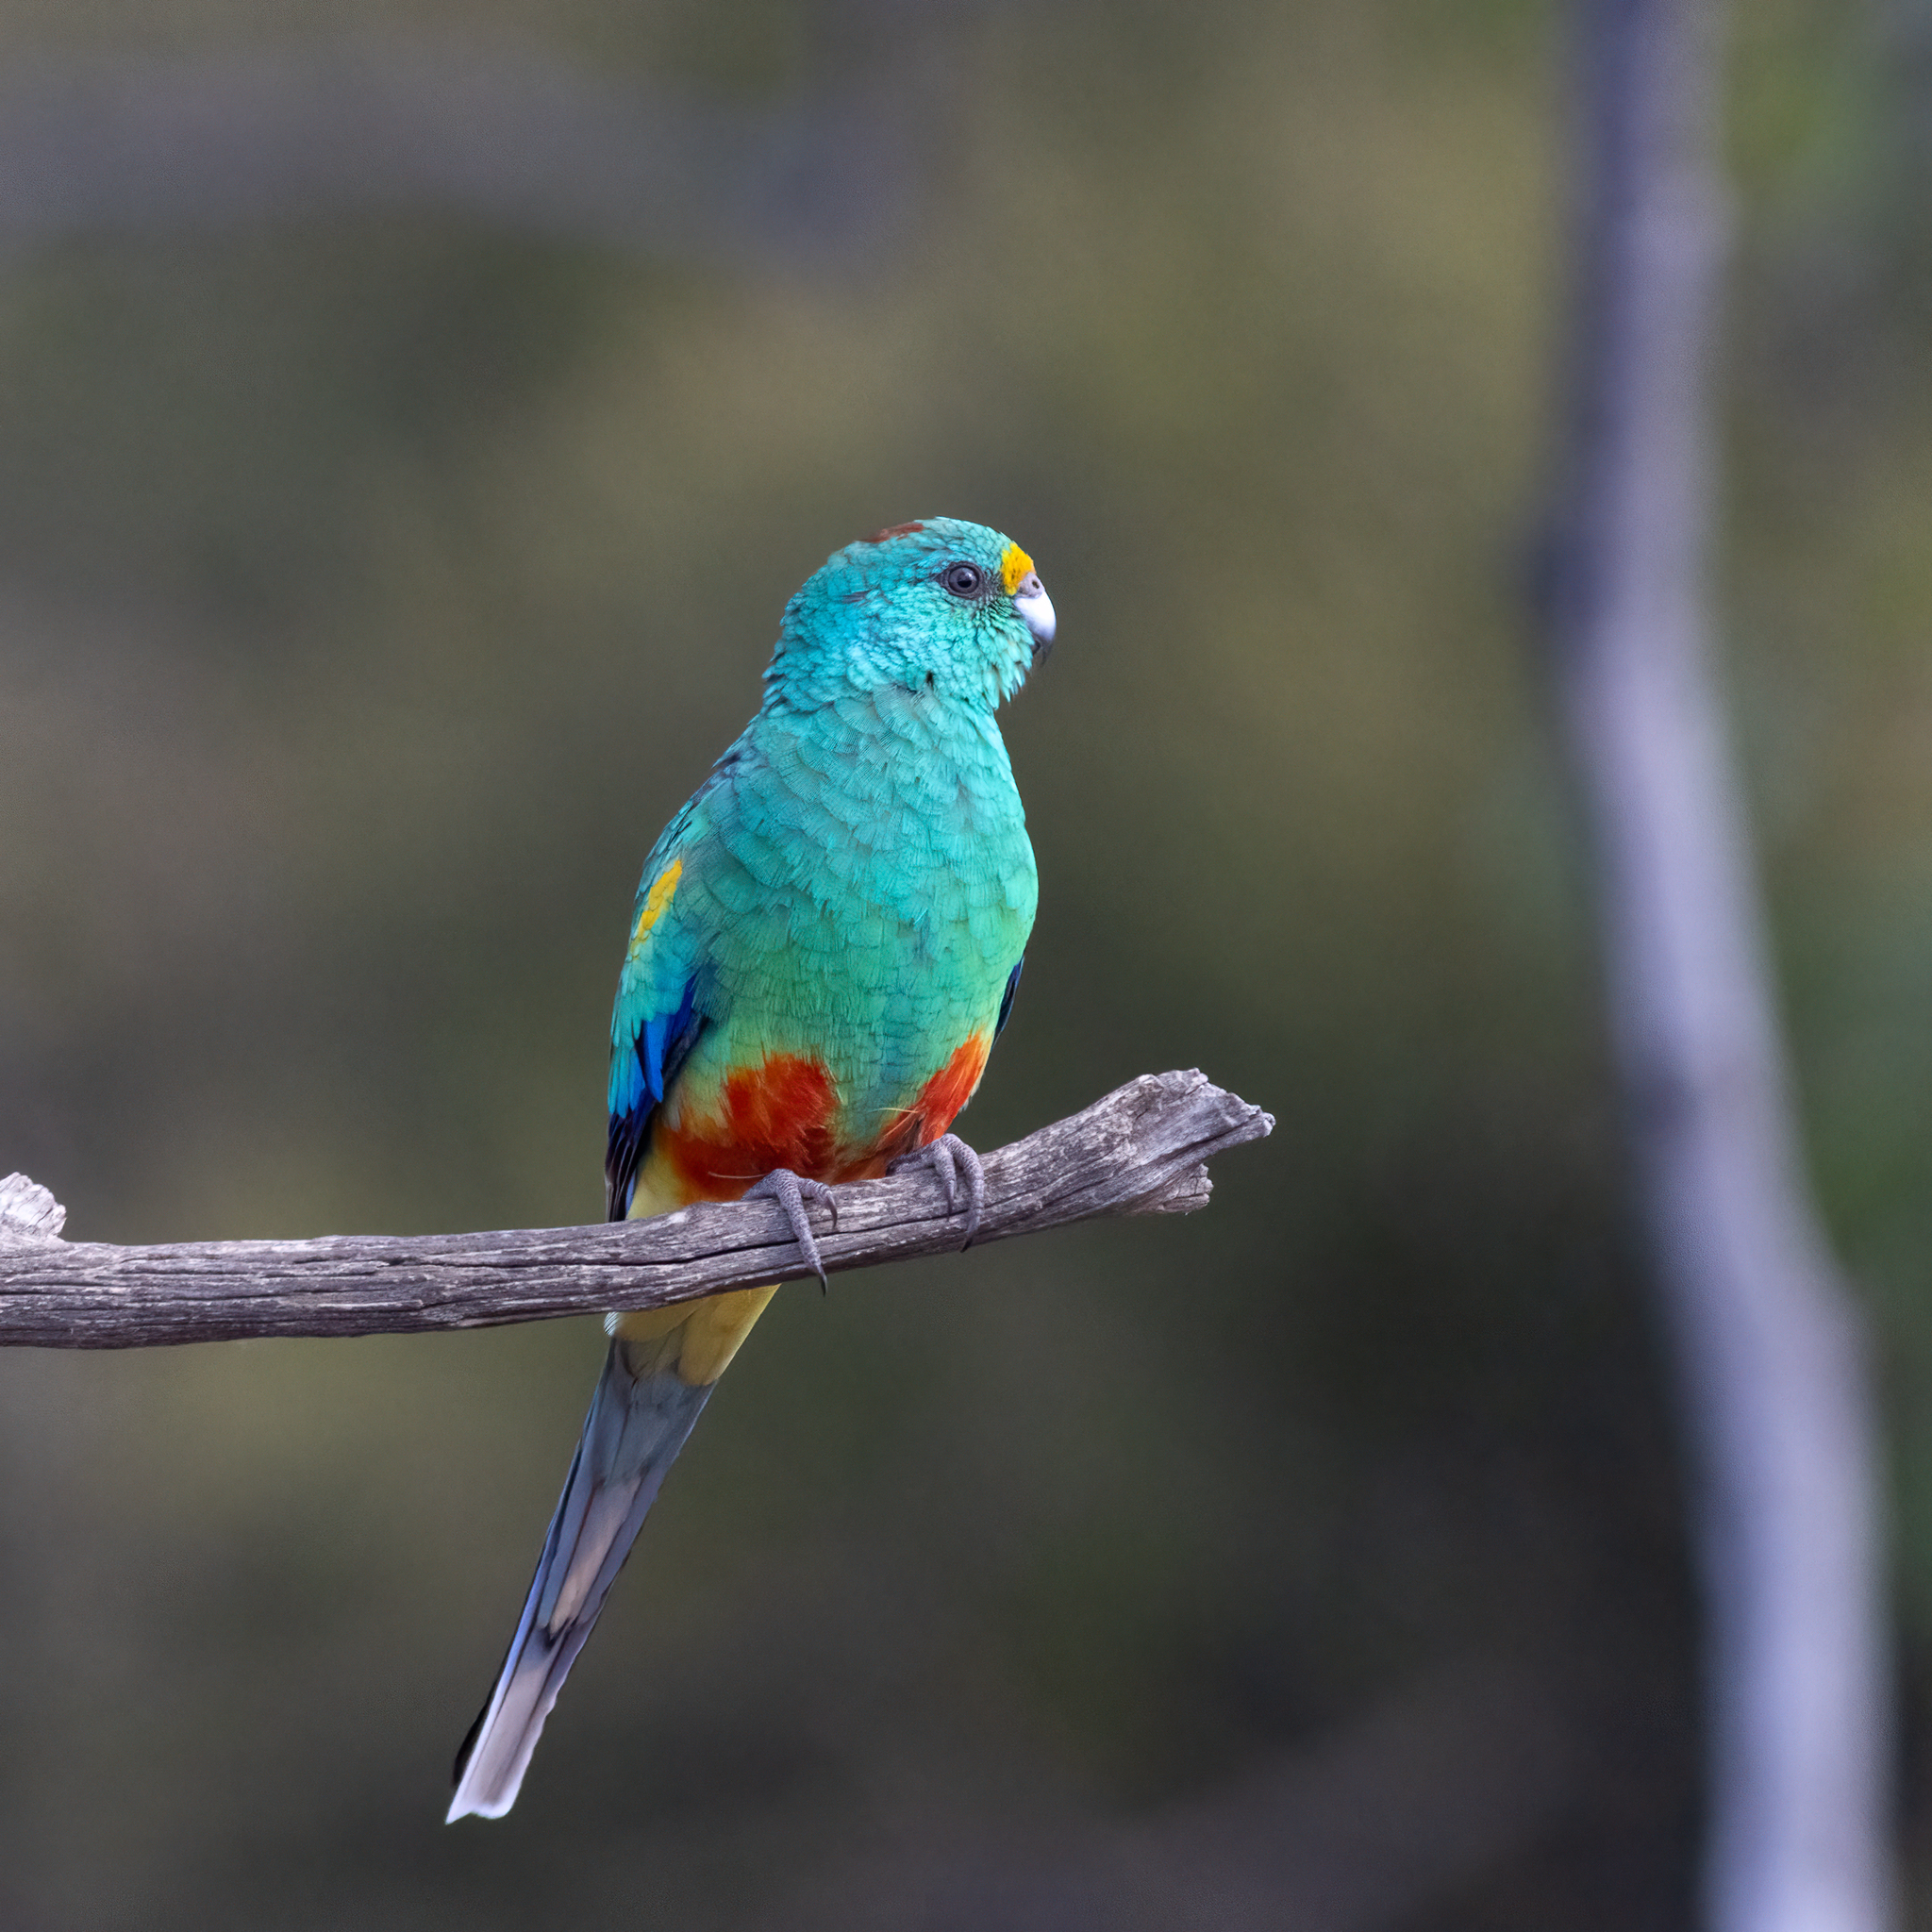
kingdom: Animalia
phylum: Chordata
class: Aves
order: Psittaciformes
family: Psittaculidae
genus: Psephotellus
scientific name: Psephotellus varius
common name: Mulga parrot
